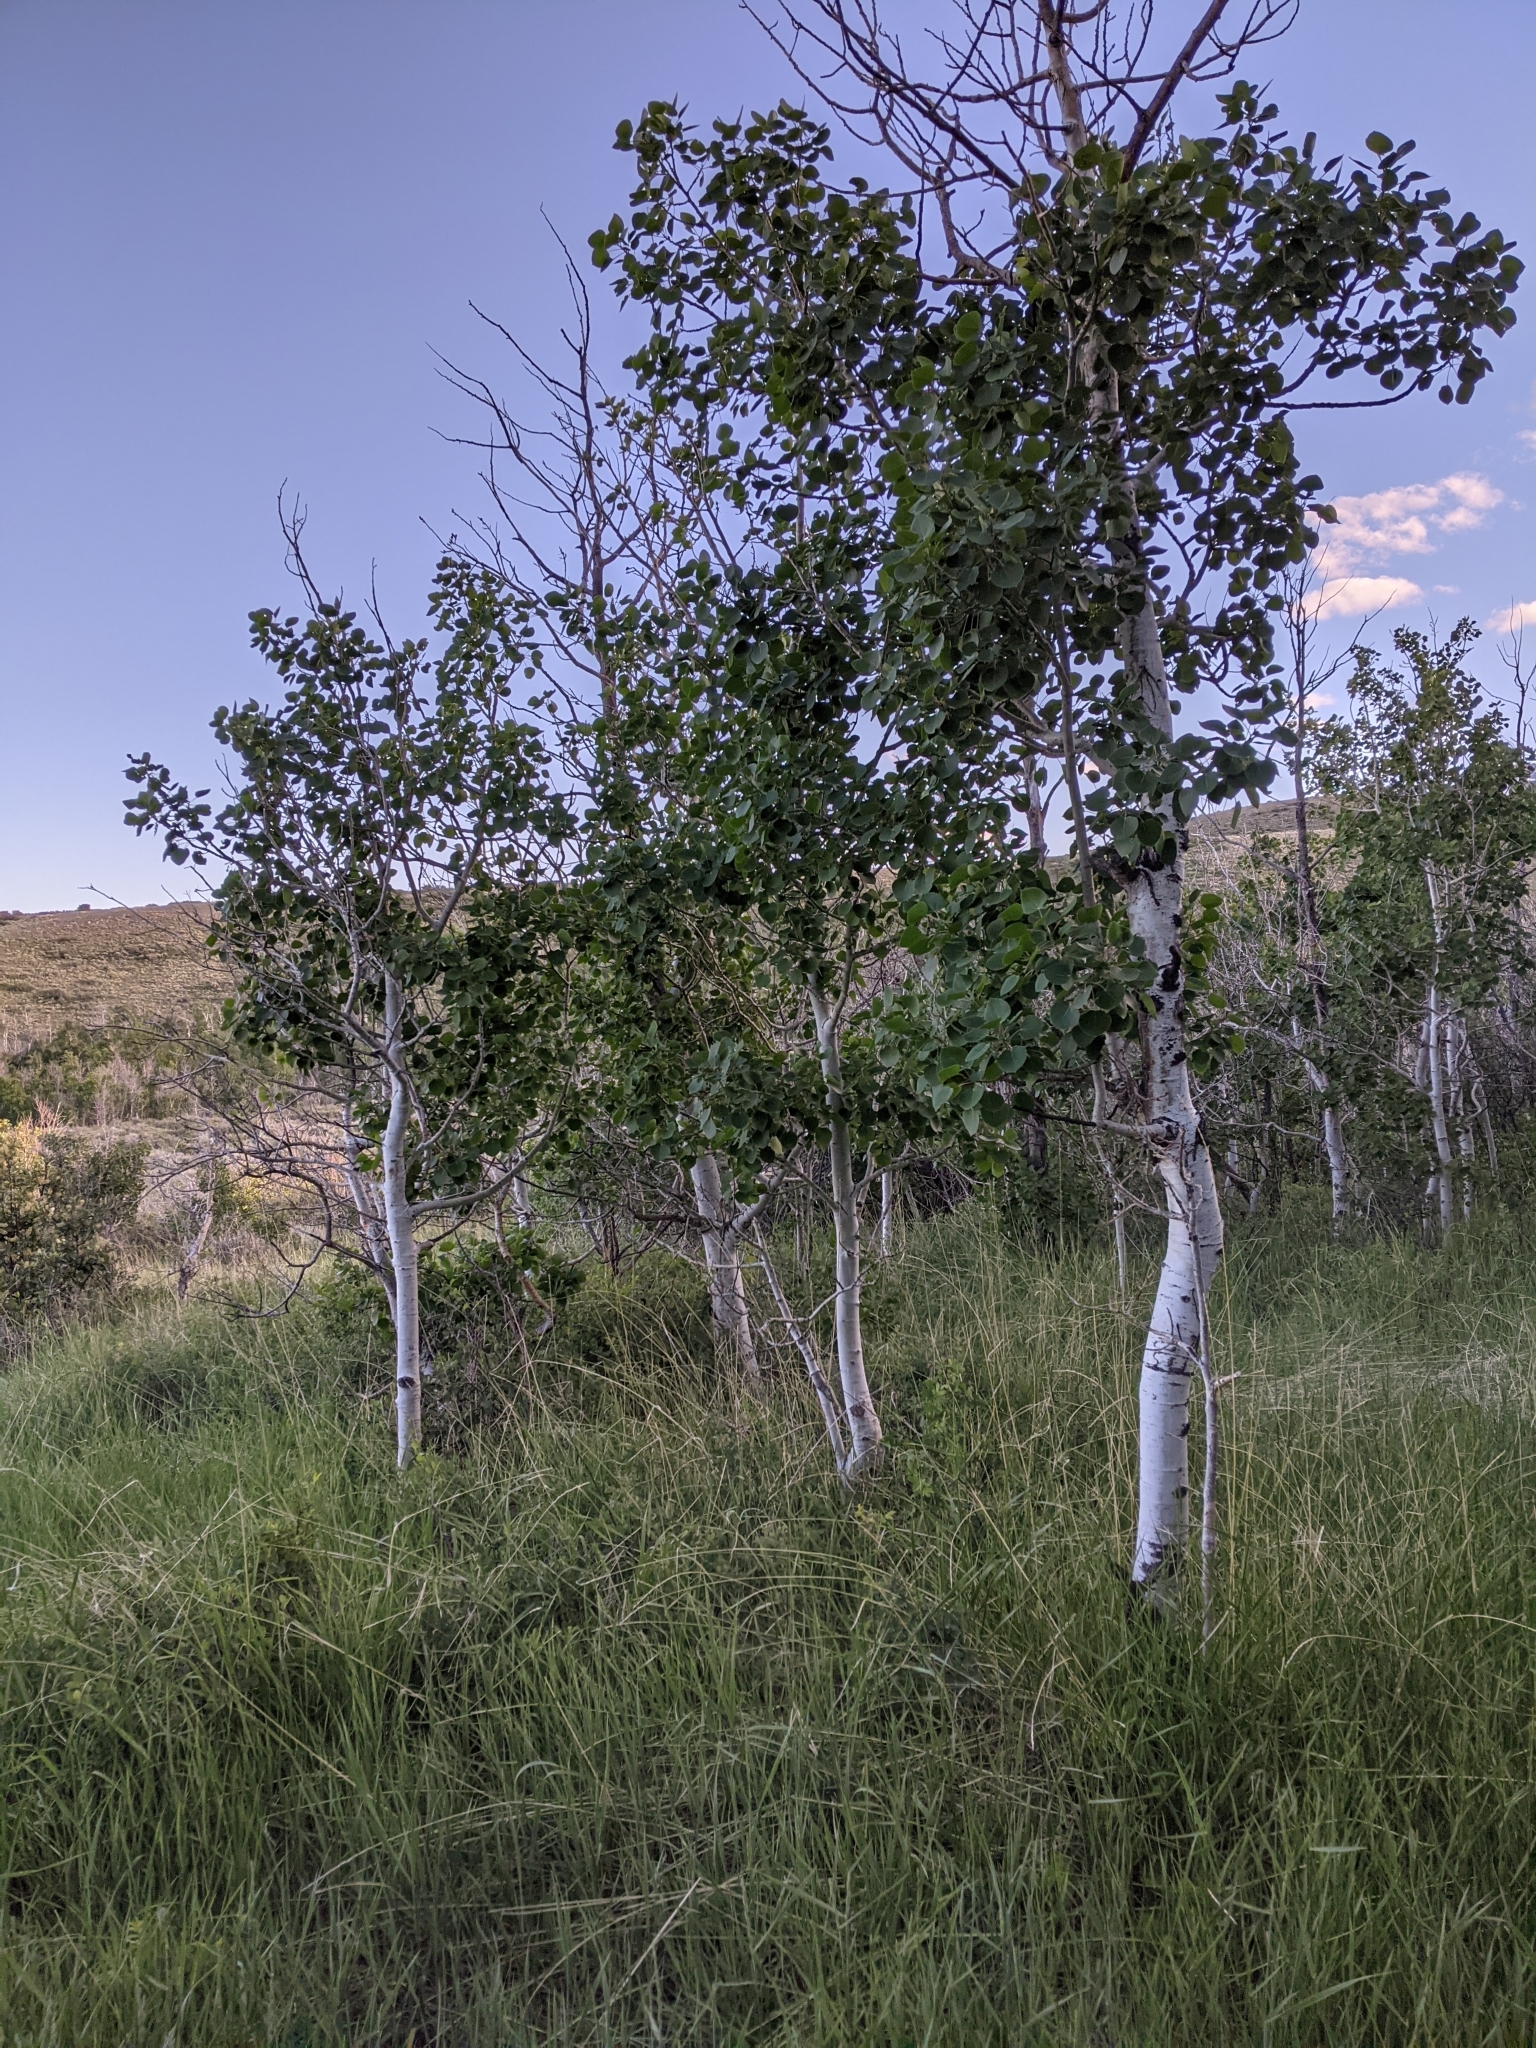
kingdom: Plantae
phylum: Tracheophyta
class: Magnoliopsida
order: Malpighiales
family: Salicaceae
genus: Populus
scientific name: Populus tremuloides
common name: Quaking aspen
